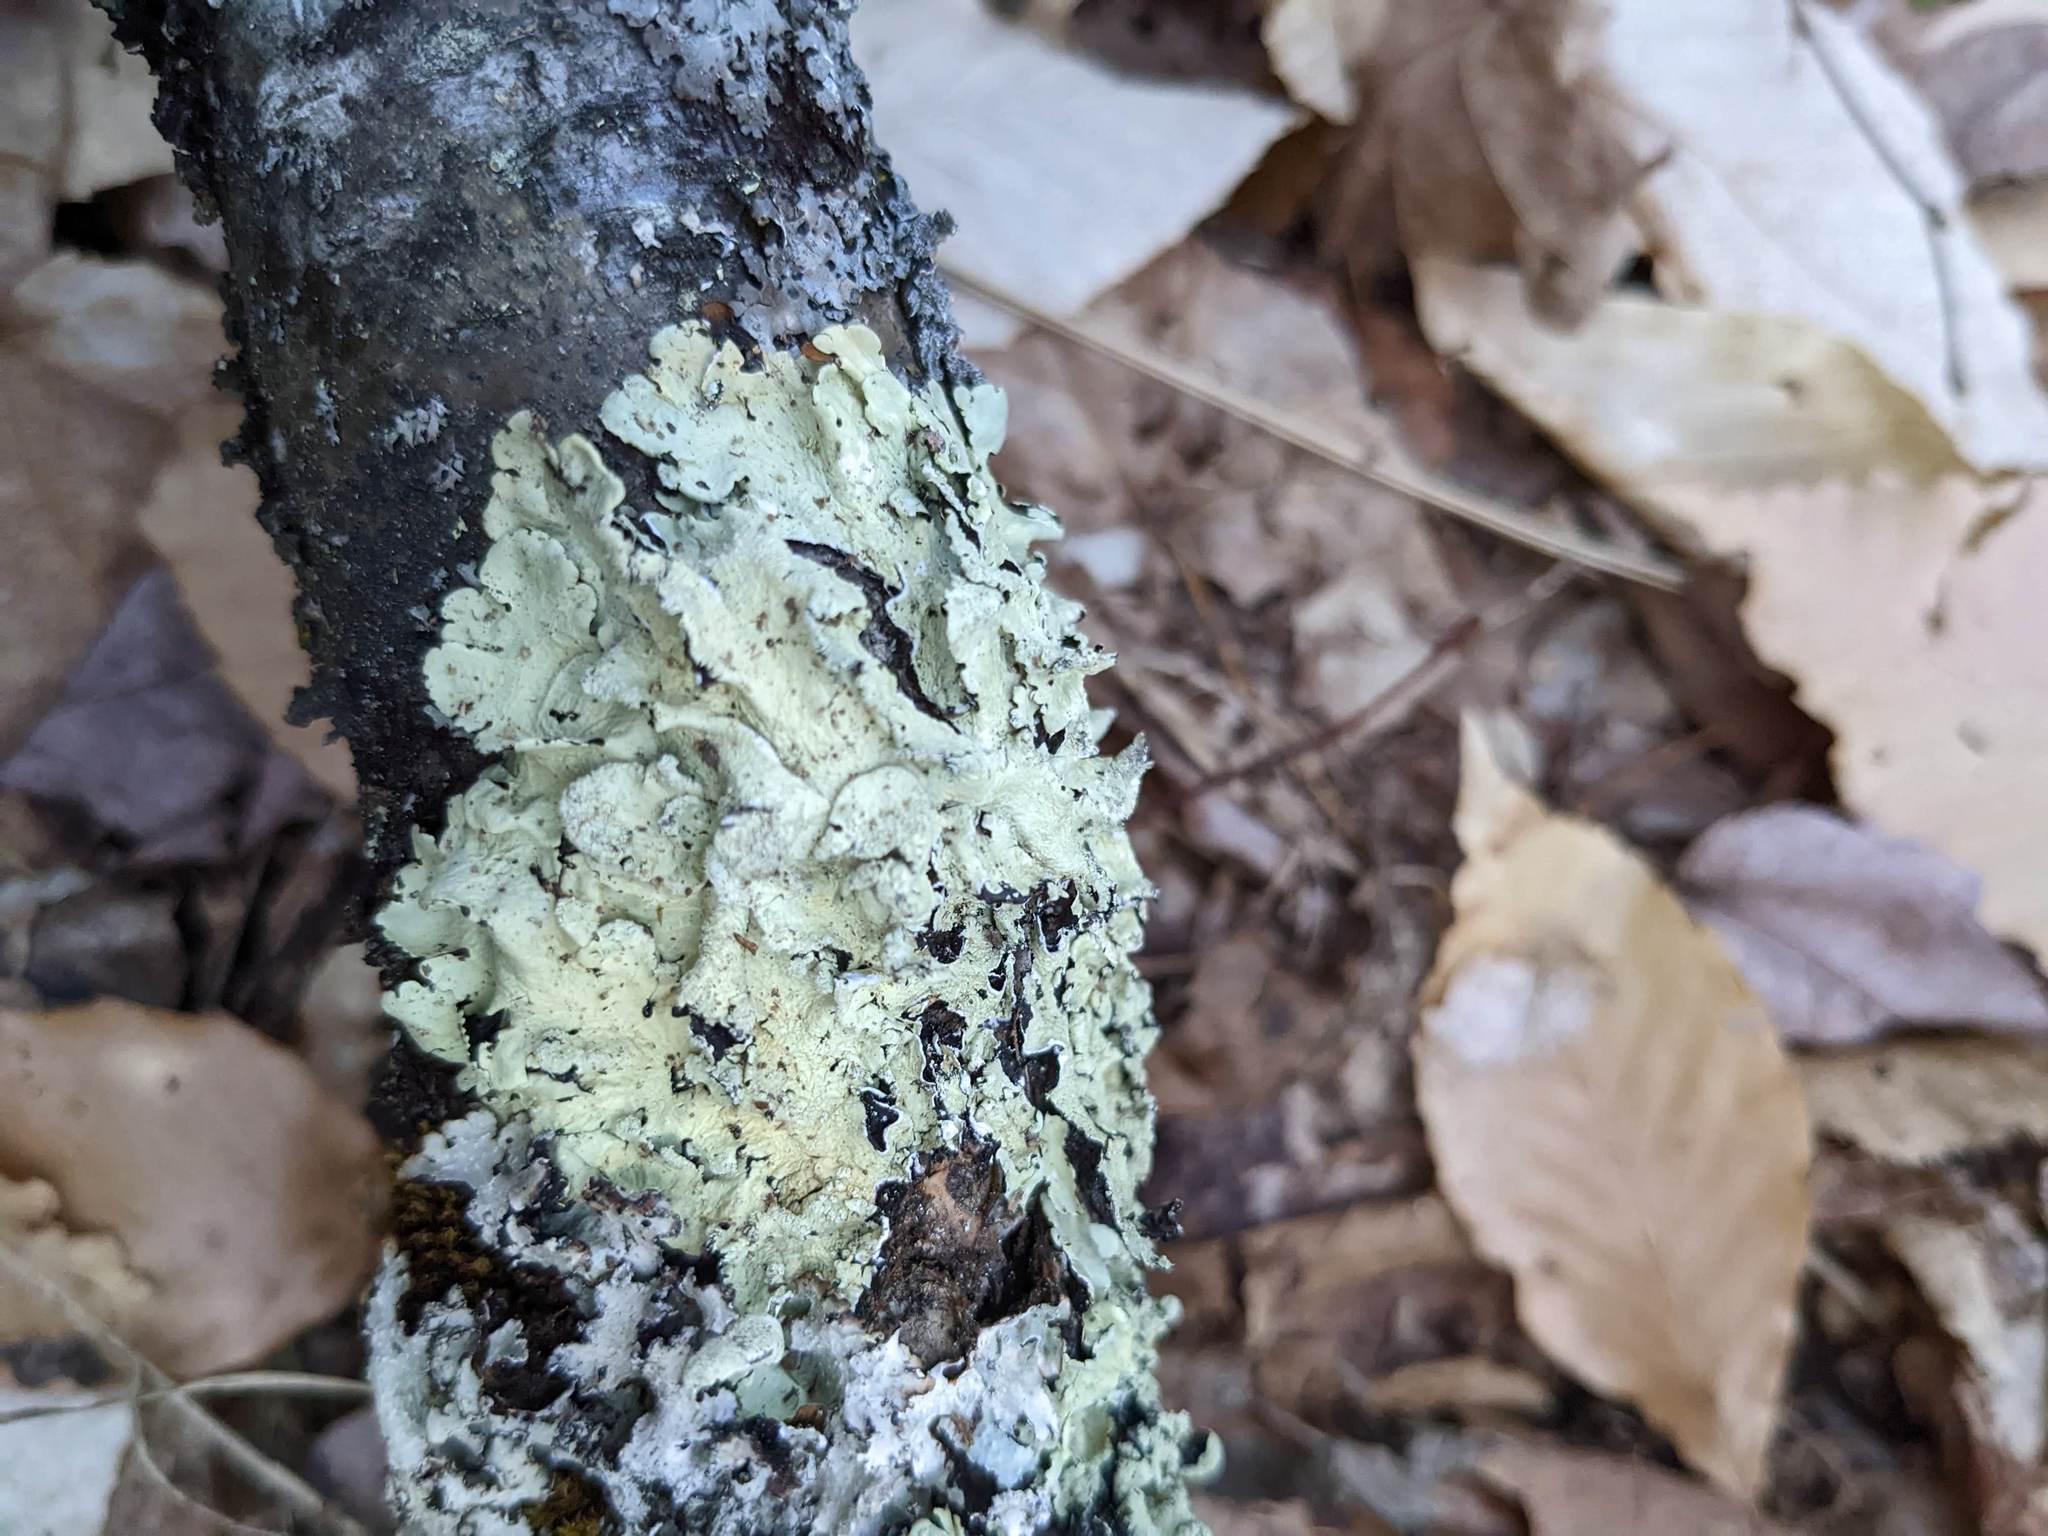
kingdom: Fungi
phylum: Ascomycota
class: Lecanoromycetes
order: Lecanorales
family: Parmeliaceae
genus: Flavoparmelia
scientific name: Flavoparmelia caperata
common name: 40-mile per hour lichen
